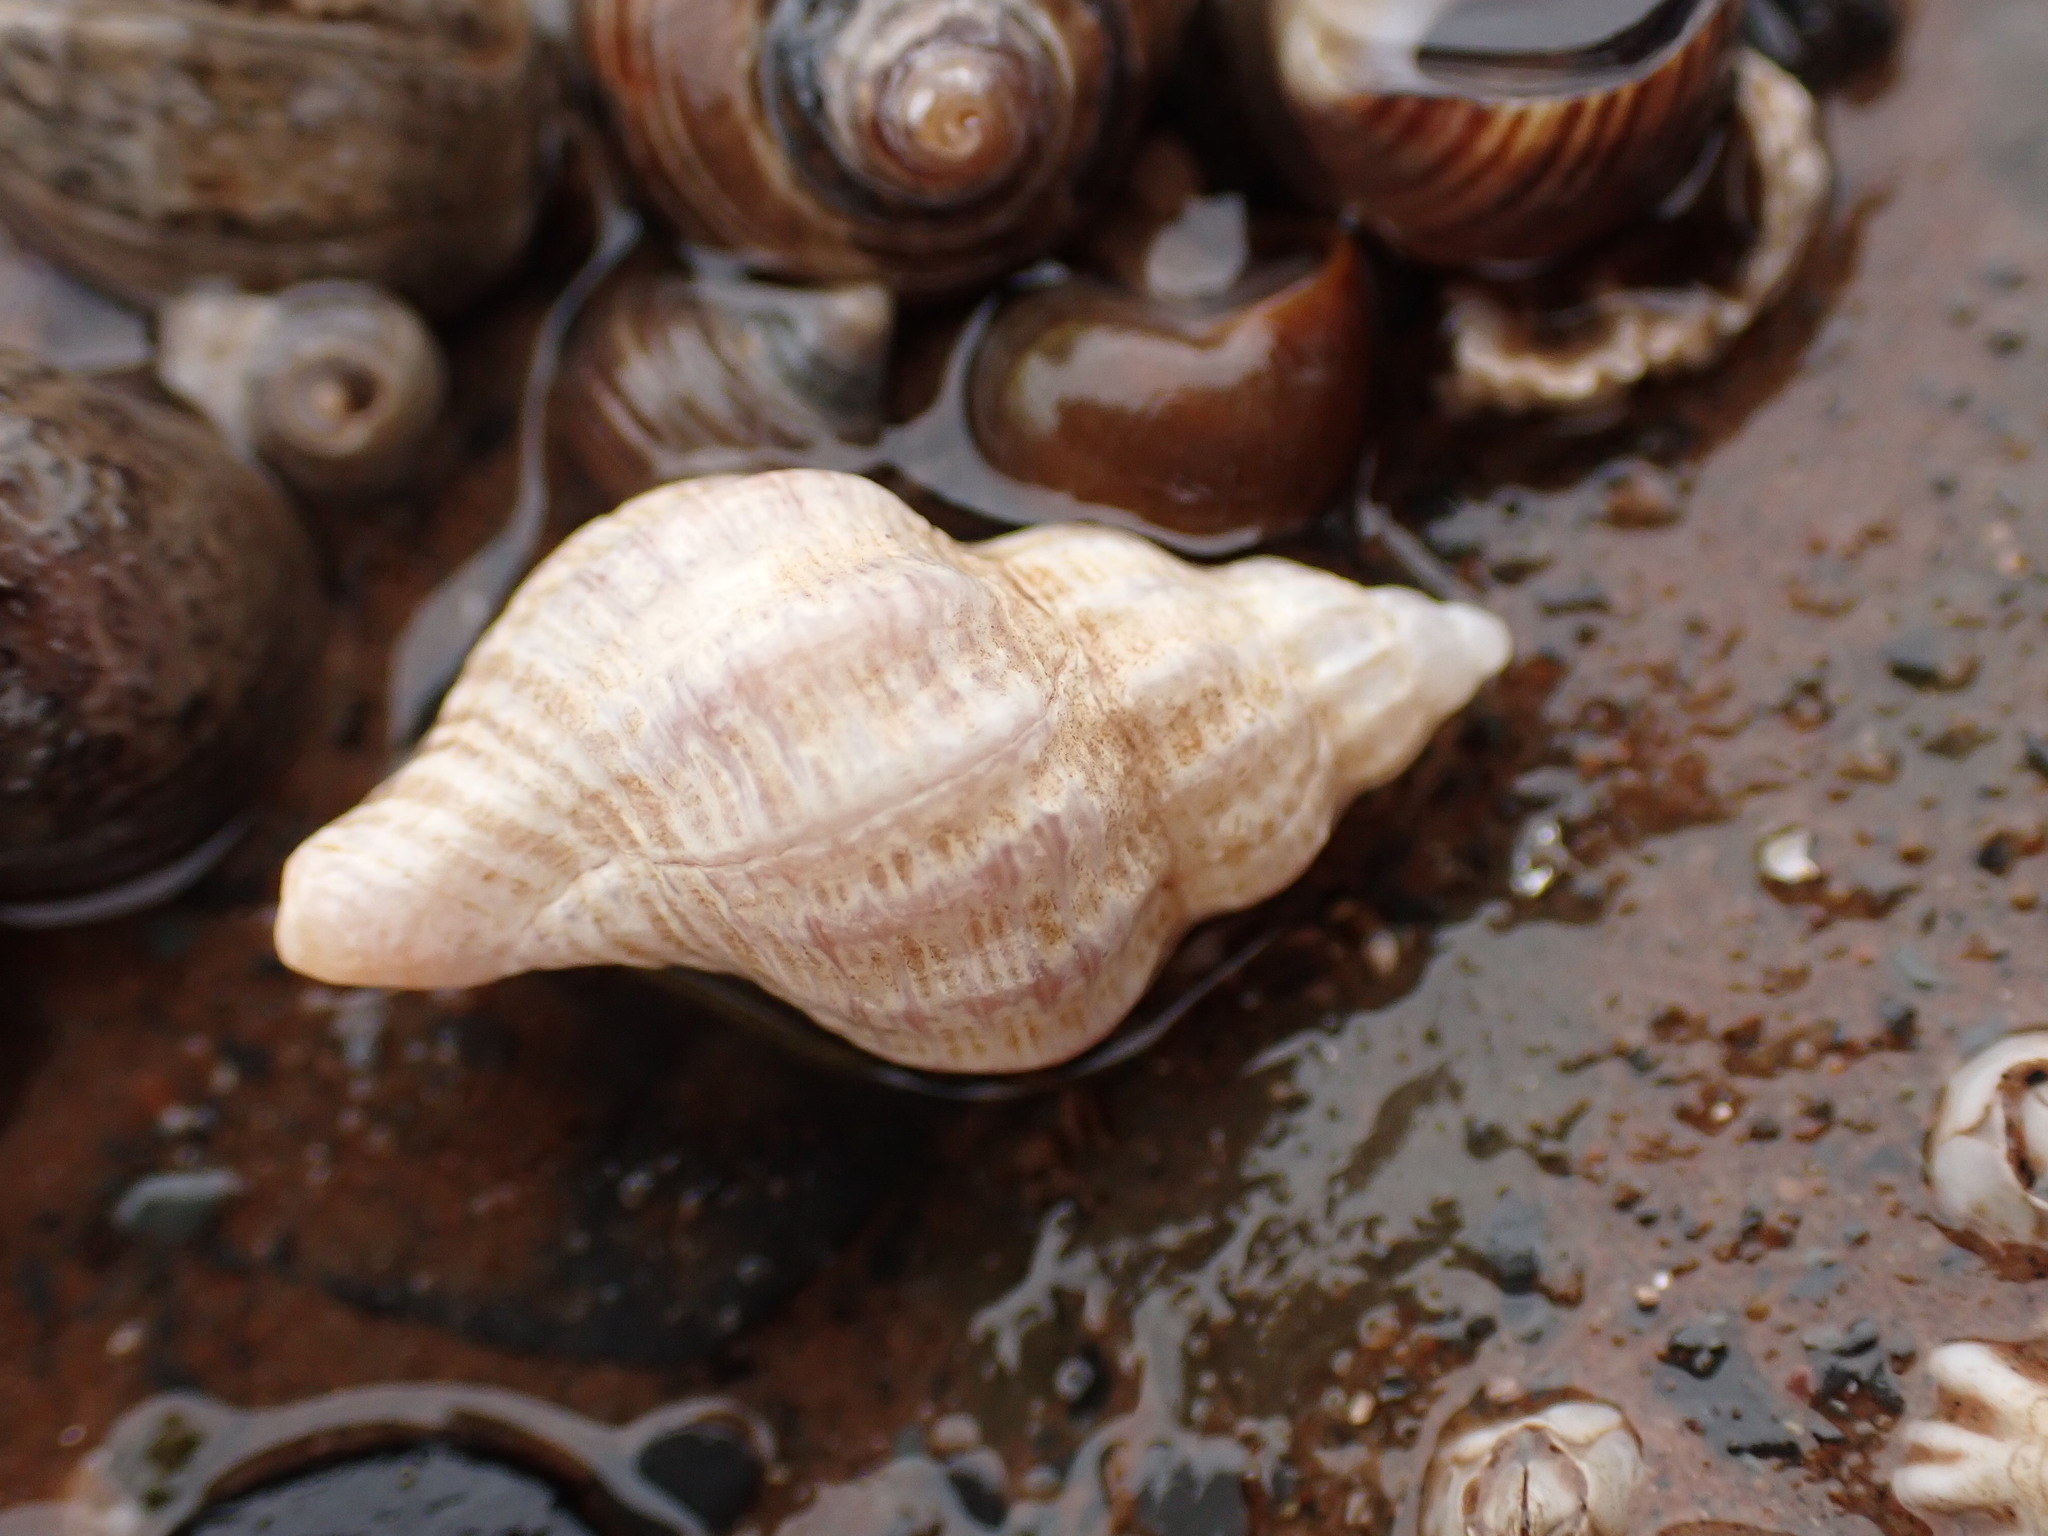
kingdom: Animalia
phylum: Mollusca
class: Gastropoda
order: Neogastropoda
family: Muricidae
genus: Urosalpinx
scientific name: Urosalpinx cinerea
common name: American sting winkle
